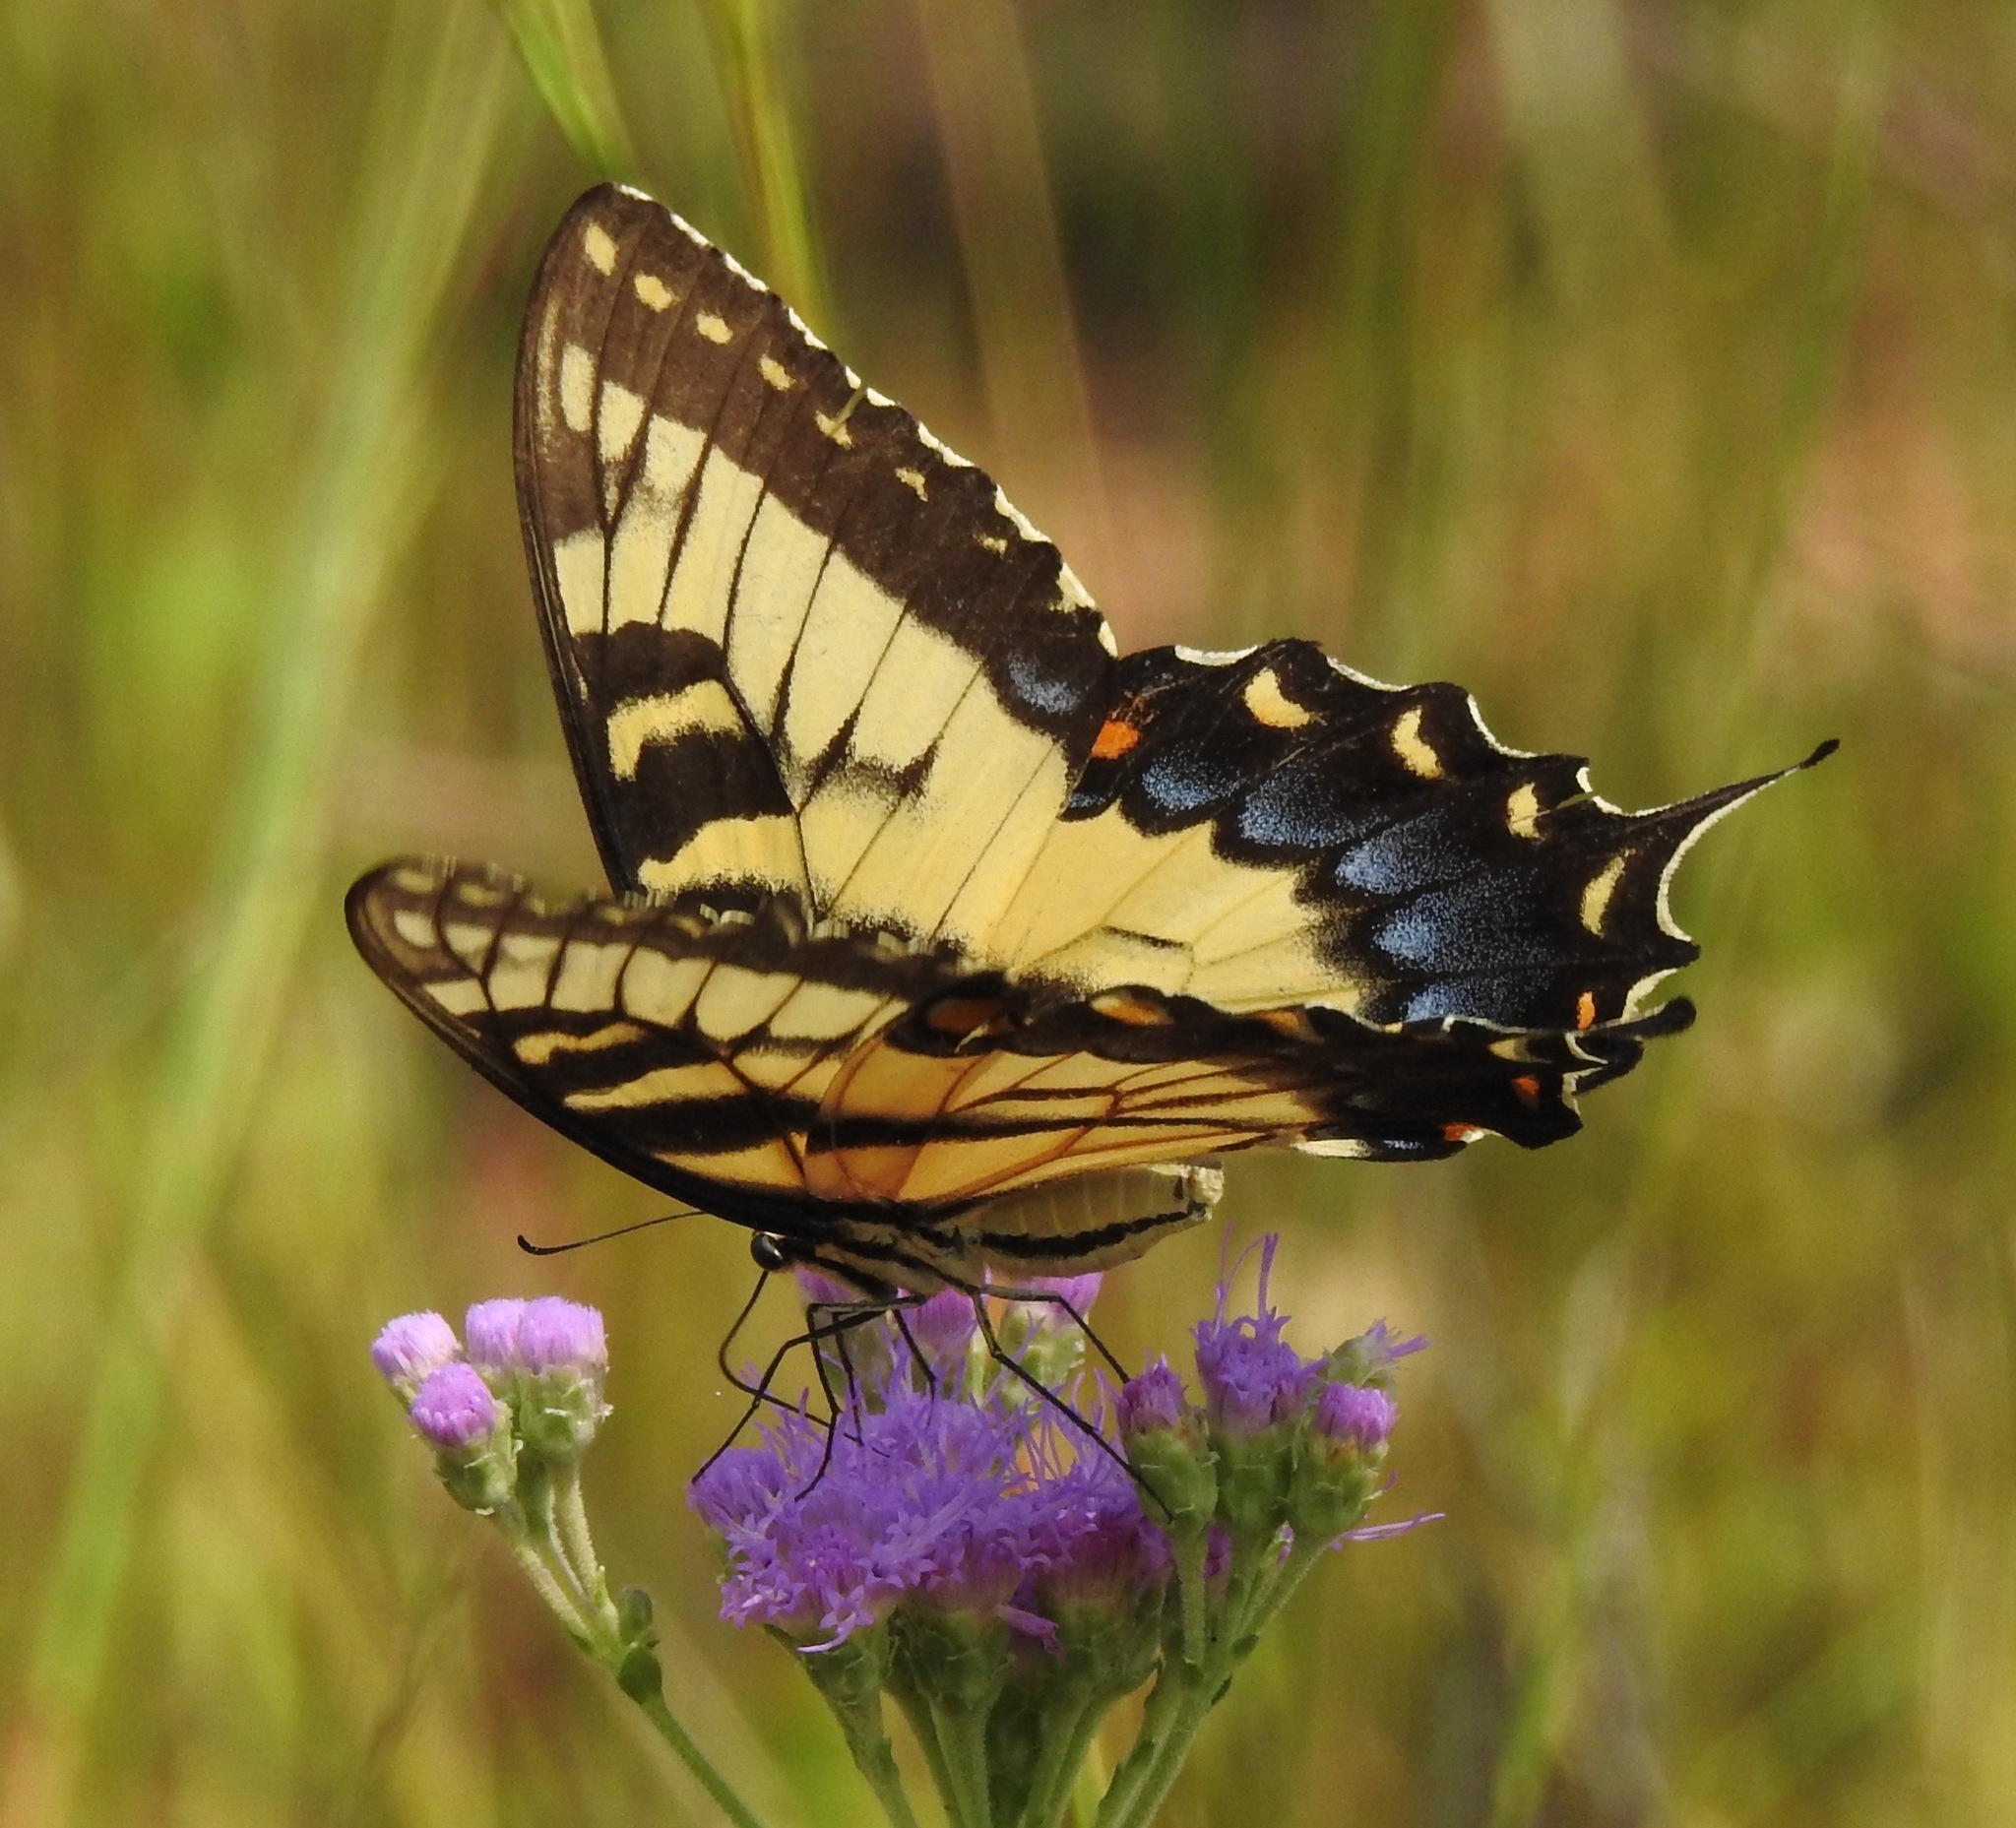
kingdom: Animalia
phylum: Arthropoda
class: Insecta
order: Lepidoptera
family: Papilionidae
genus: Papilio
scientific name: Papilio glaucus
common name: Tiger swallowtail
